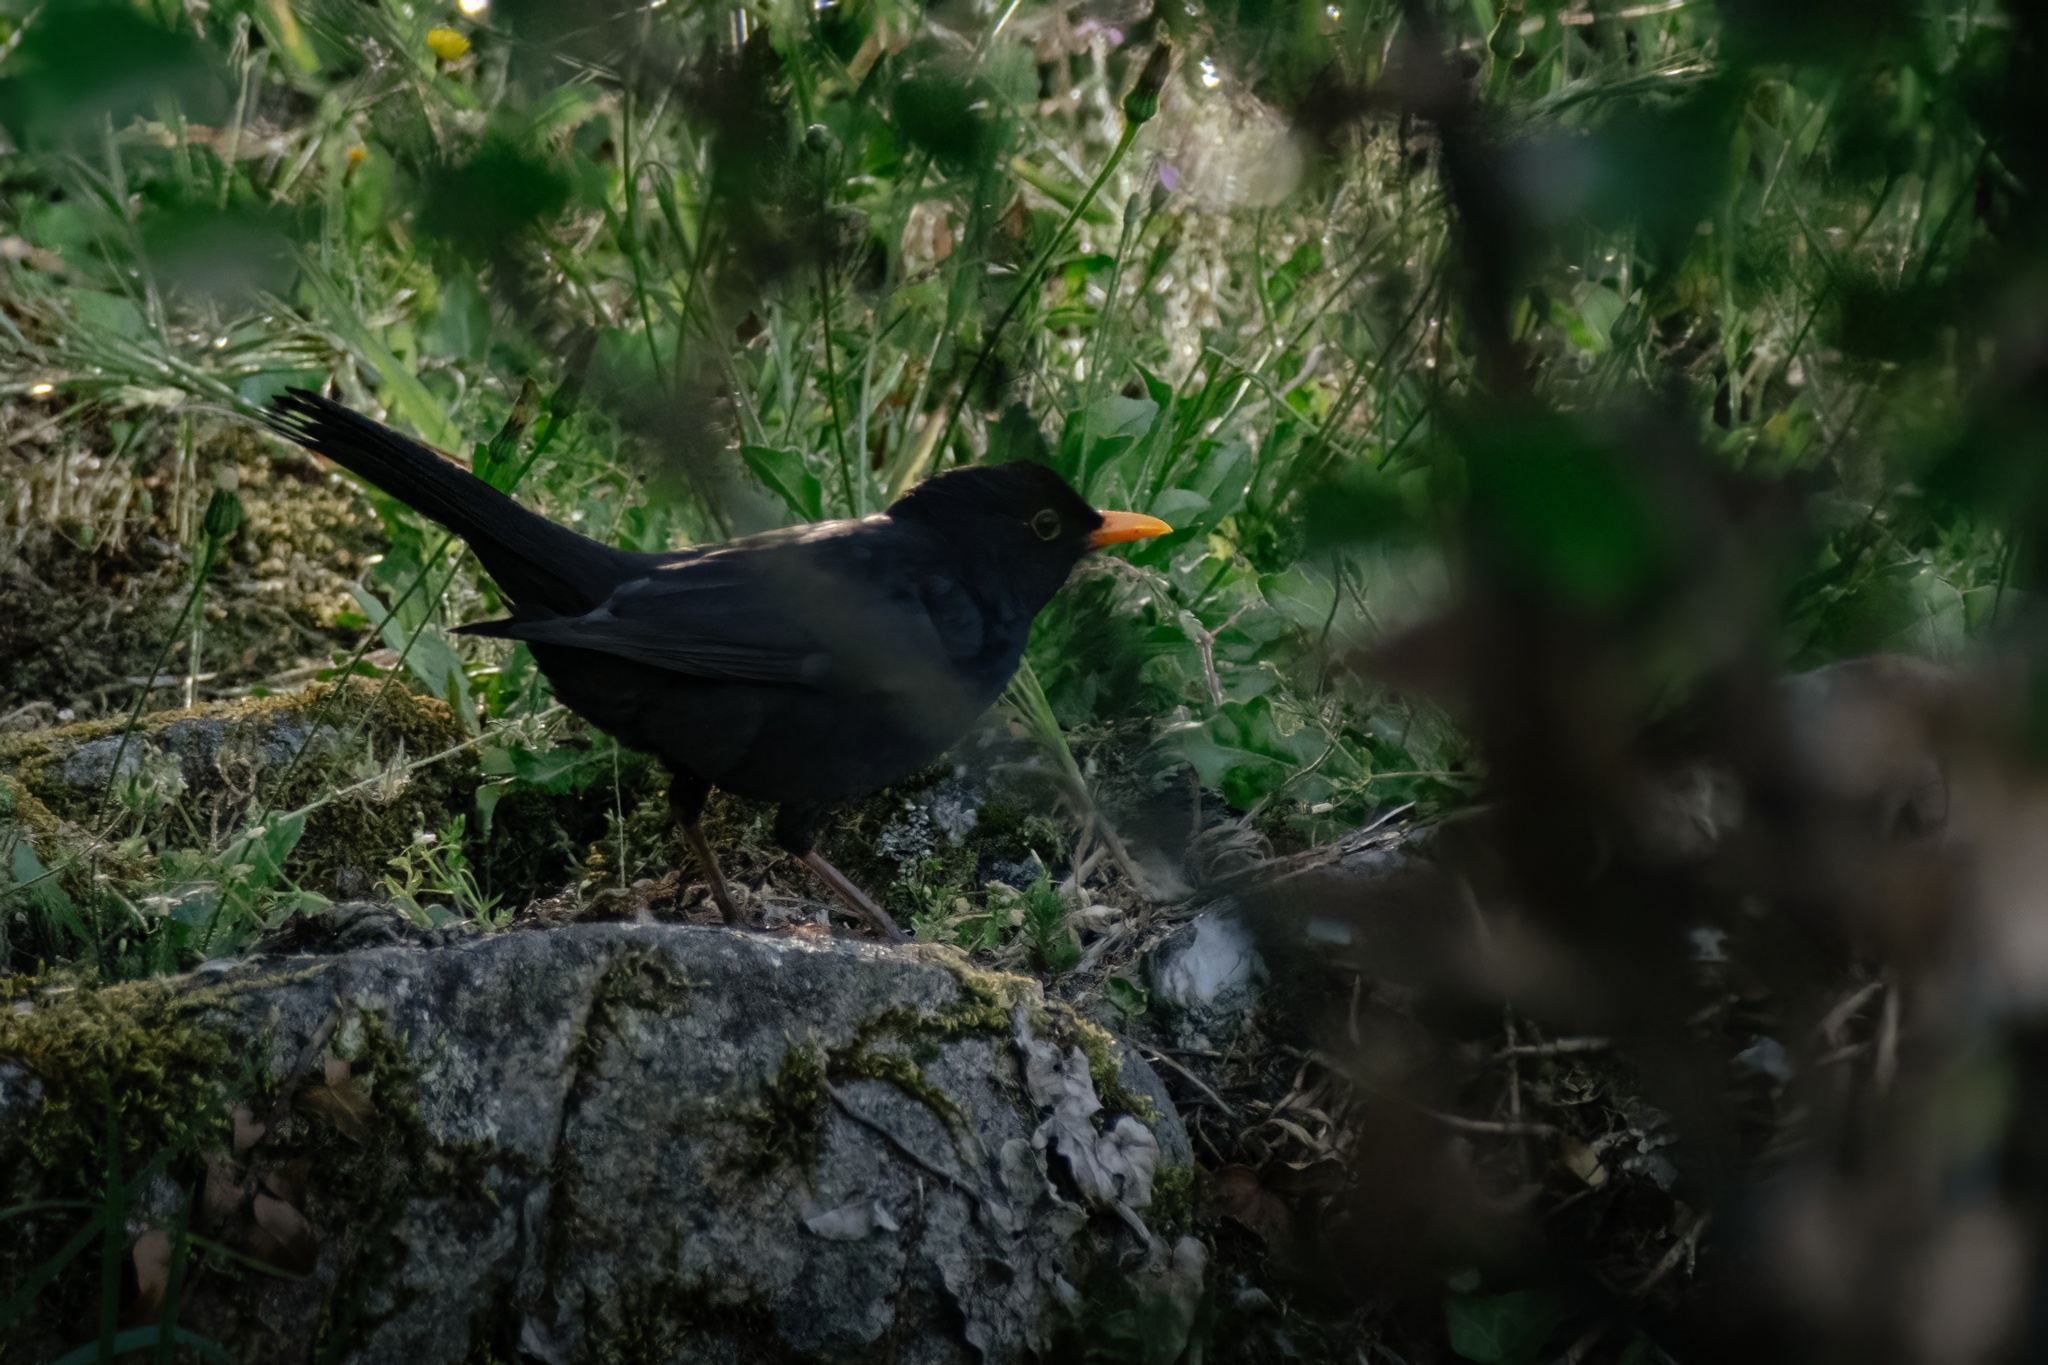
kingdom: Animalia
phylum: Chordata
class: Aves
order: Passeriformes
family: Turdidae
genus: Turdus
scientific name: Turdus merula
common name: Common blackbird
